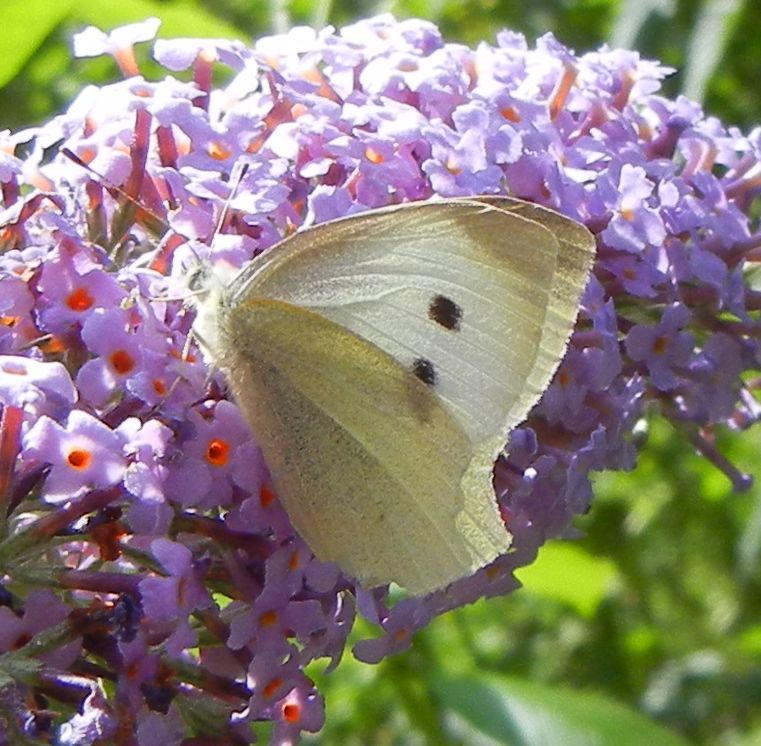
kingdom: Animalia
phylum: Arthropoda
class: Insecta
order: Lepidoptera
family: Pieridae
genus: Pieris
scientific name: Pieris rapae
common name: Small white
